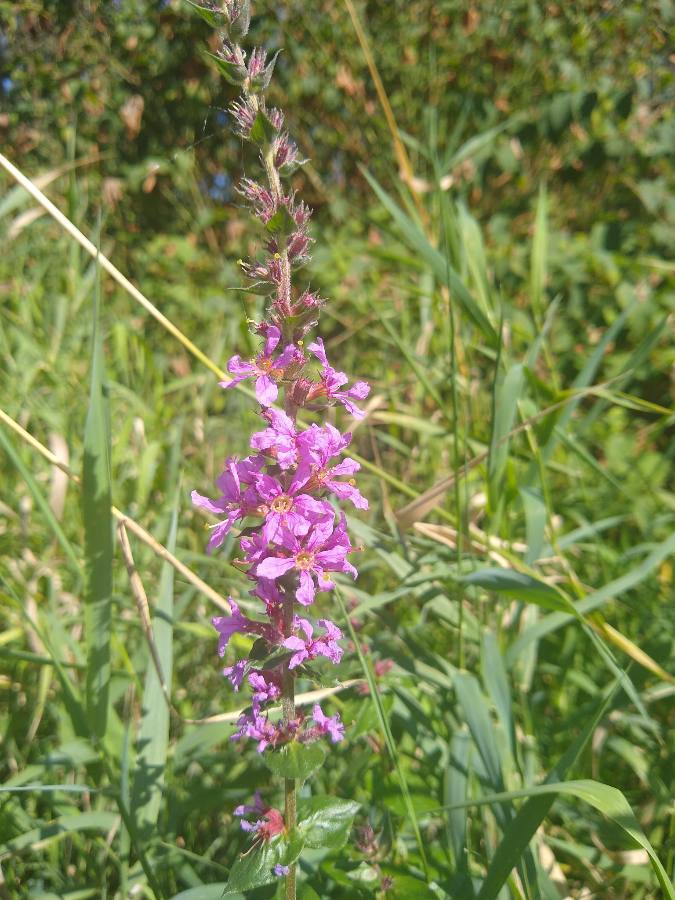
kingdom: Plantae
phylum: Tracheophyta
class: Magnoliopsida
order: Myrtales
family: Lythraceae
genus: Lythrum
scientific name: Lythrum salicaria
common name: Purple loosestrife
